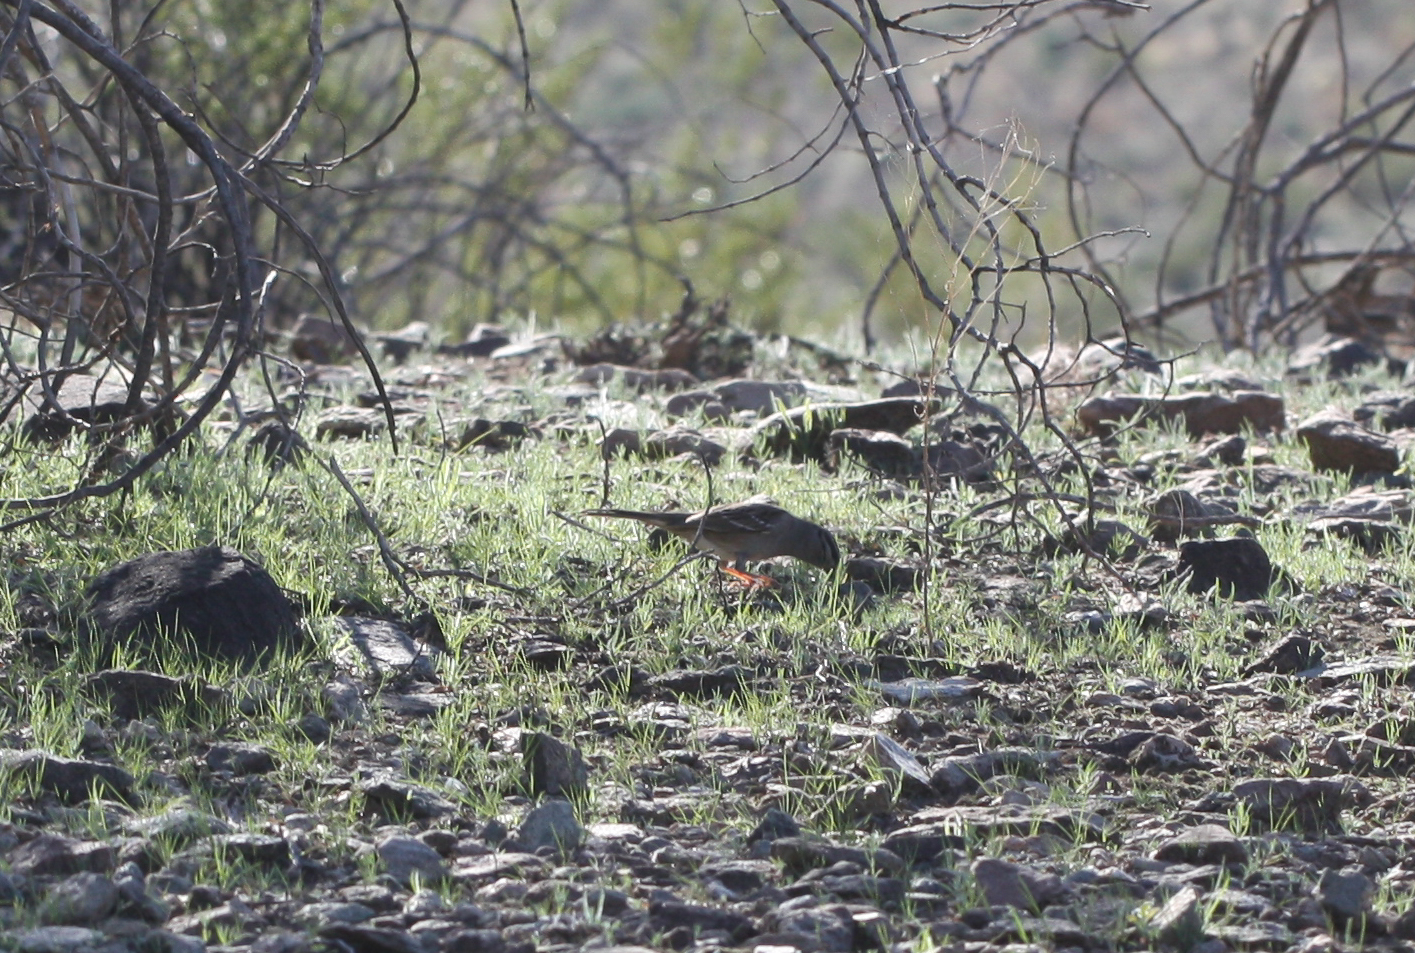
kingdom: Animalia
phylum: Chordata
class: Aves
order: Passeriformes
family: Passerellidae
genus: Zonotrichia
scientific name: Zonotrichia leucophrys
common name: White-crowned sparrow
